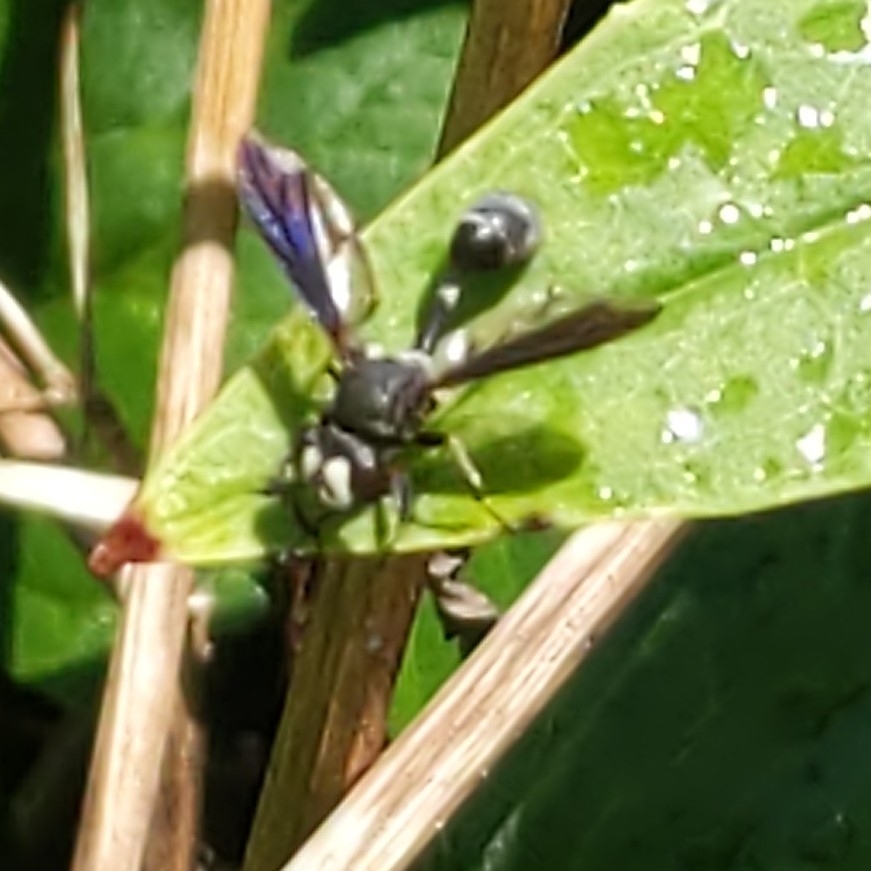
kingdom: Animalia
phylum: Arthropoda
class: Insecta
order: Diptera
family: Conopidae
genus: Physocephala
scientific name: Physocephala tibialis
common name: Common eastern physocephala
